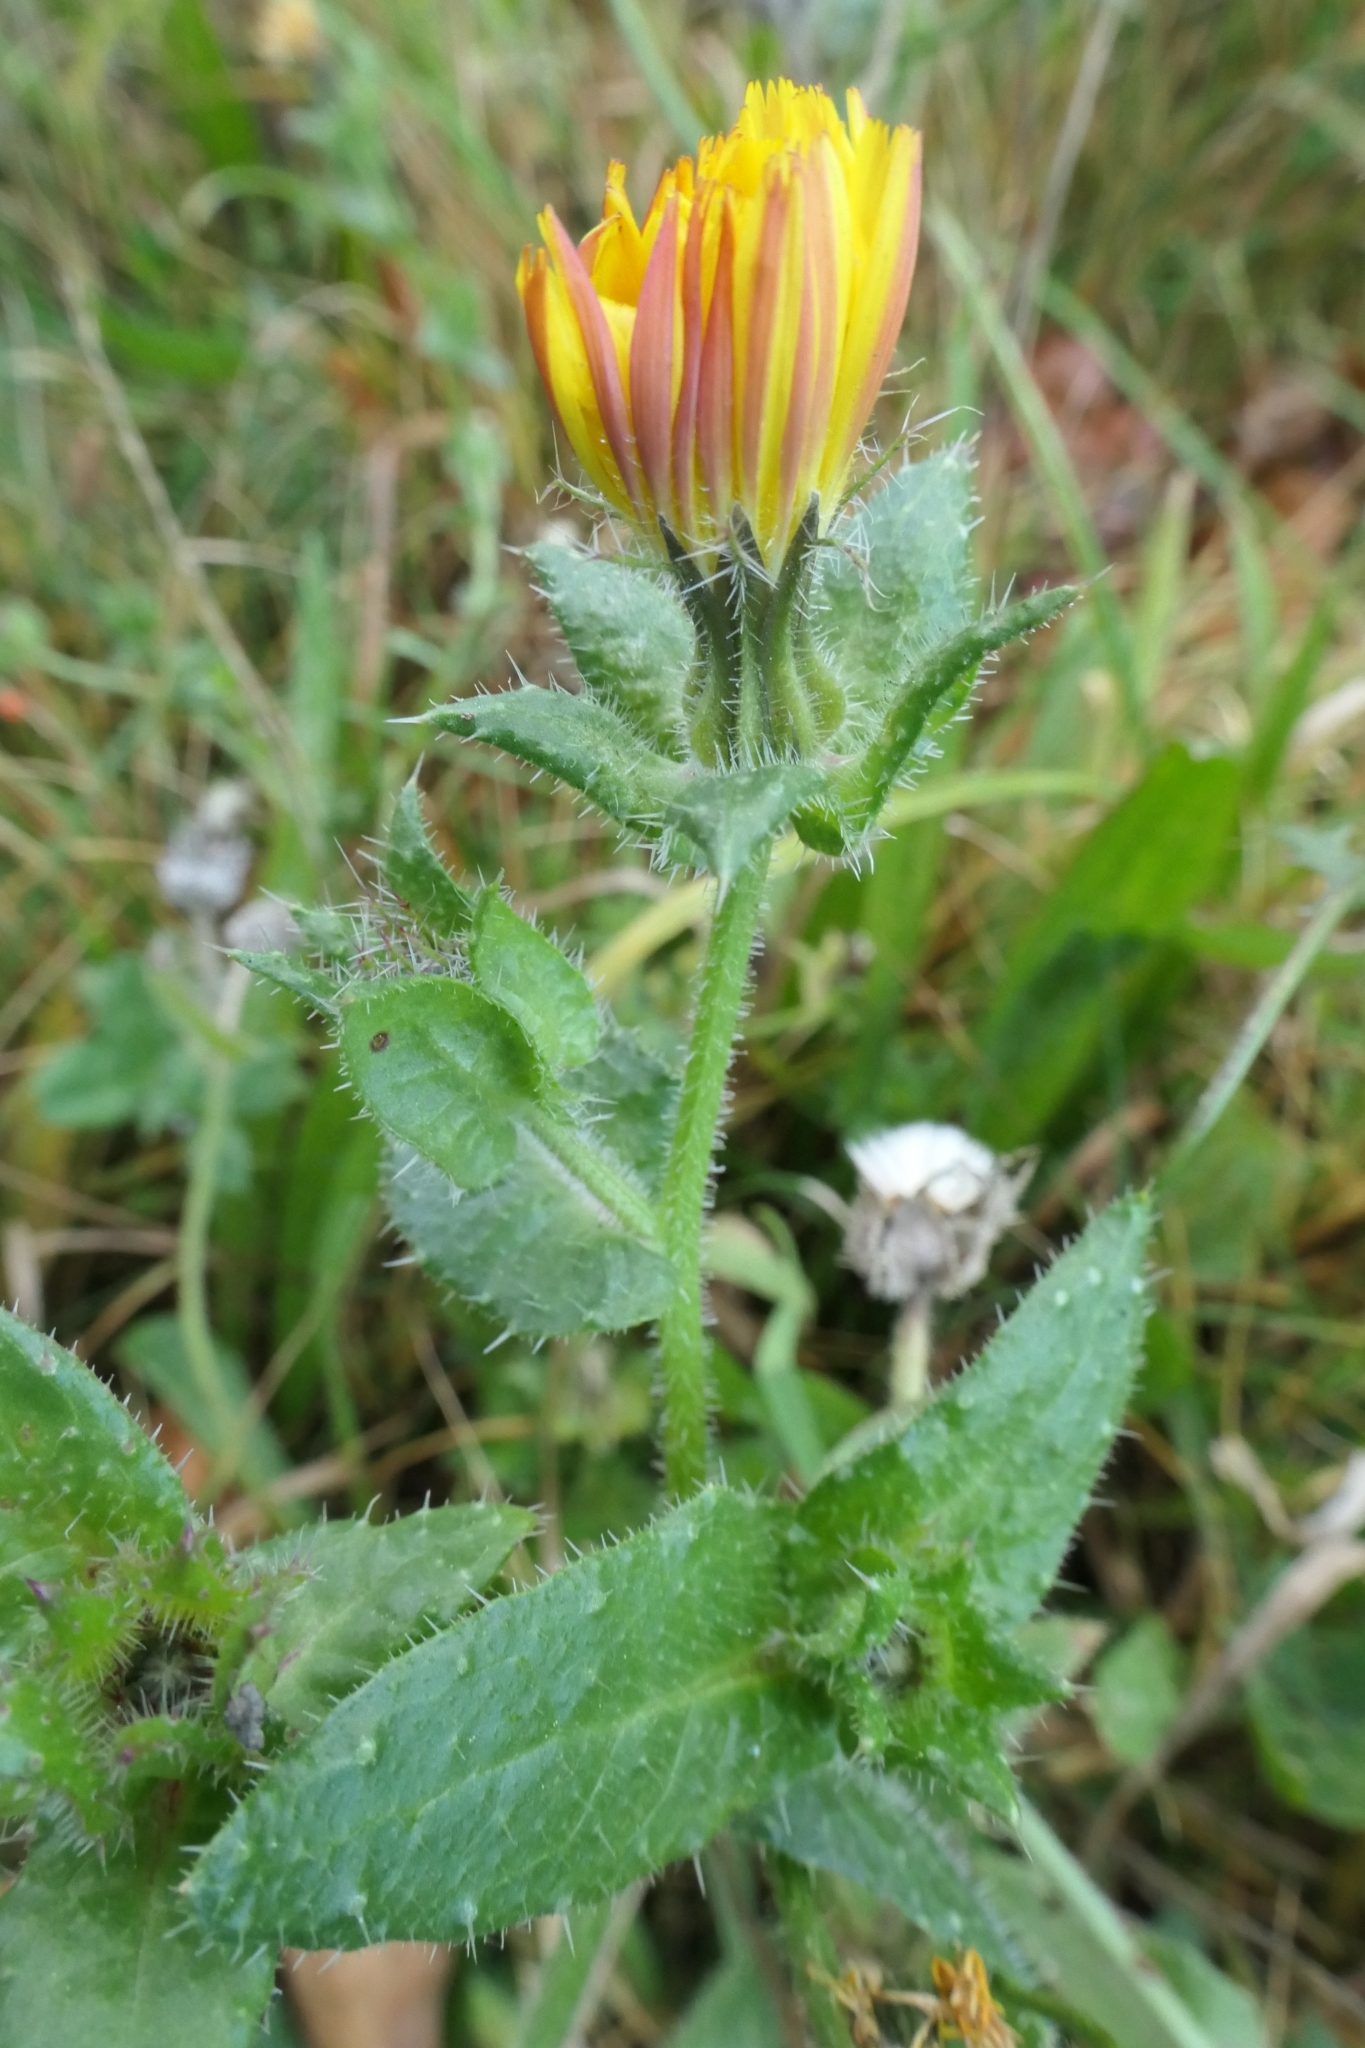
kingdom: Plantae
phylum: Tracheophyta
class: Magnoliopsida
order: Asterales
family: Asteraceae
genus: Helminthotheca
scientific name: Helminthotheca echioides
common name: Ox-tongue
